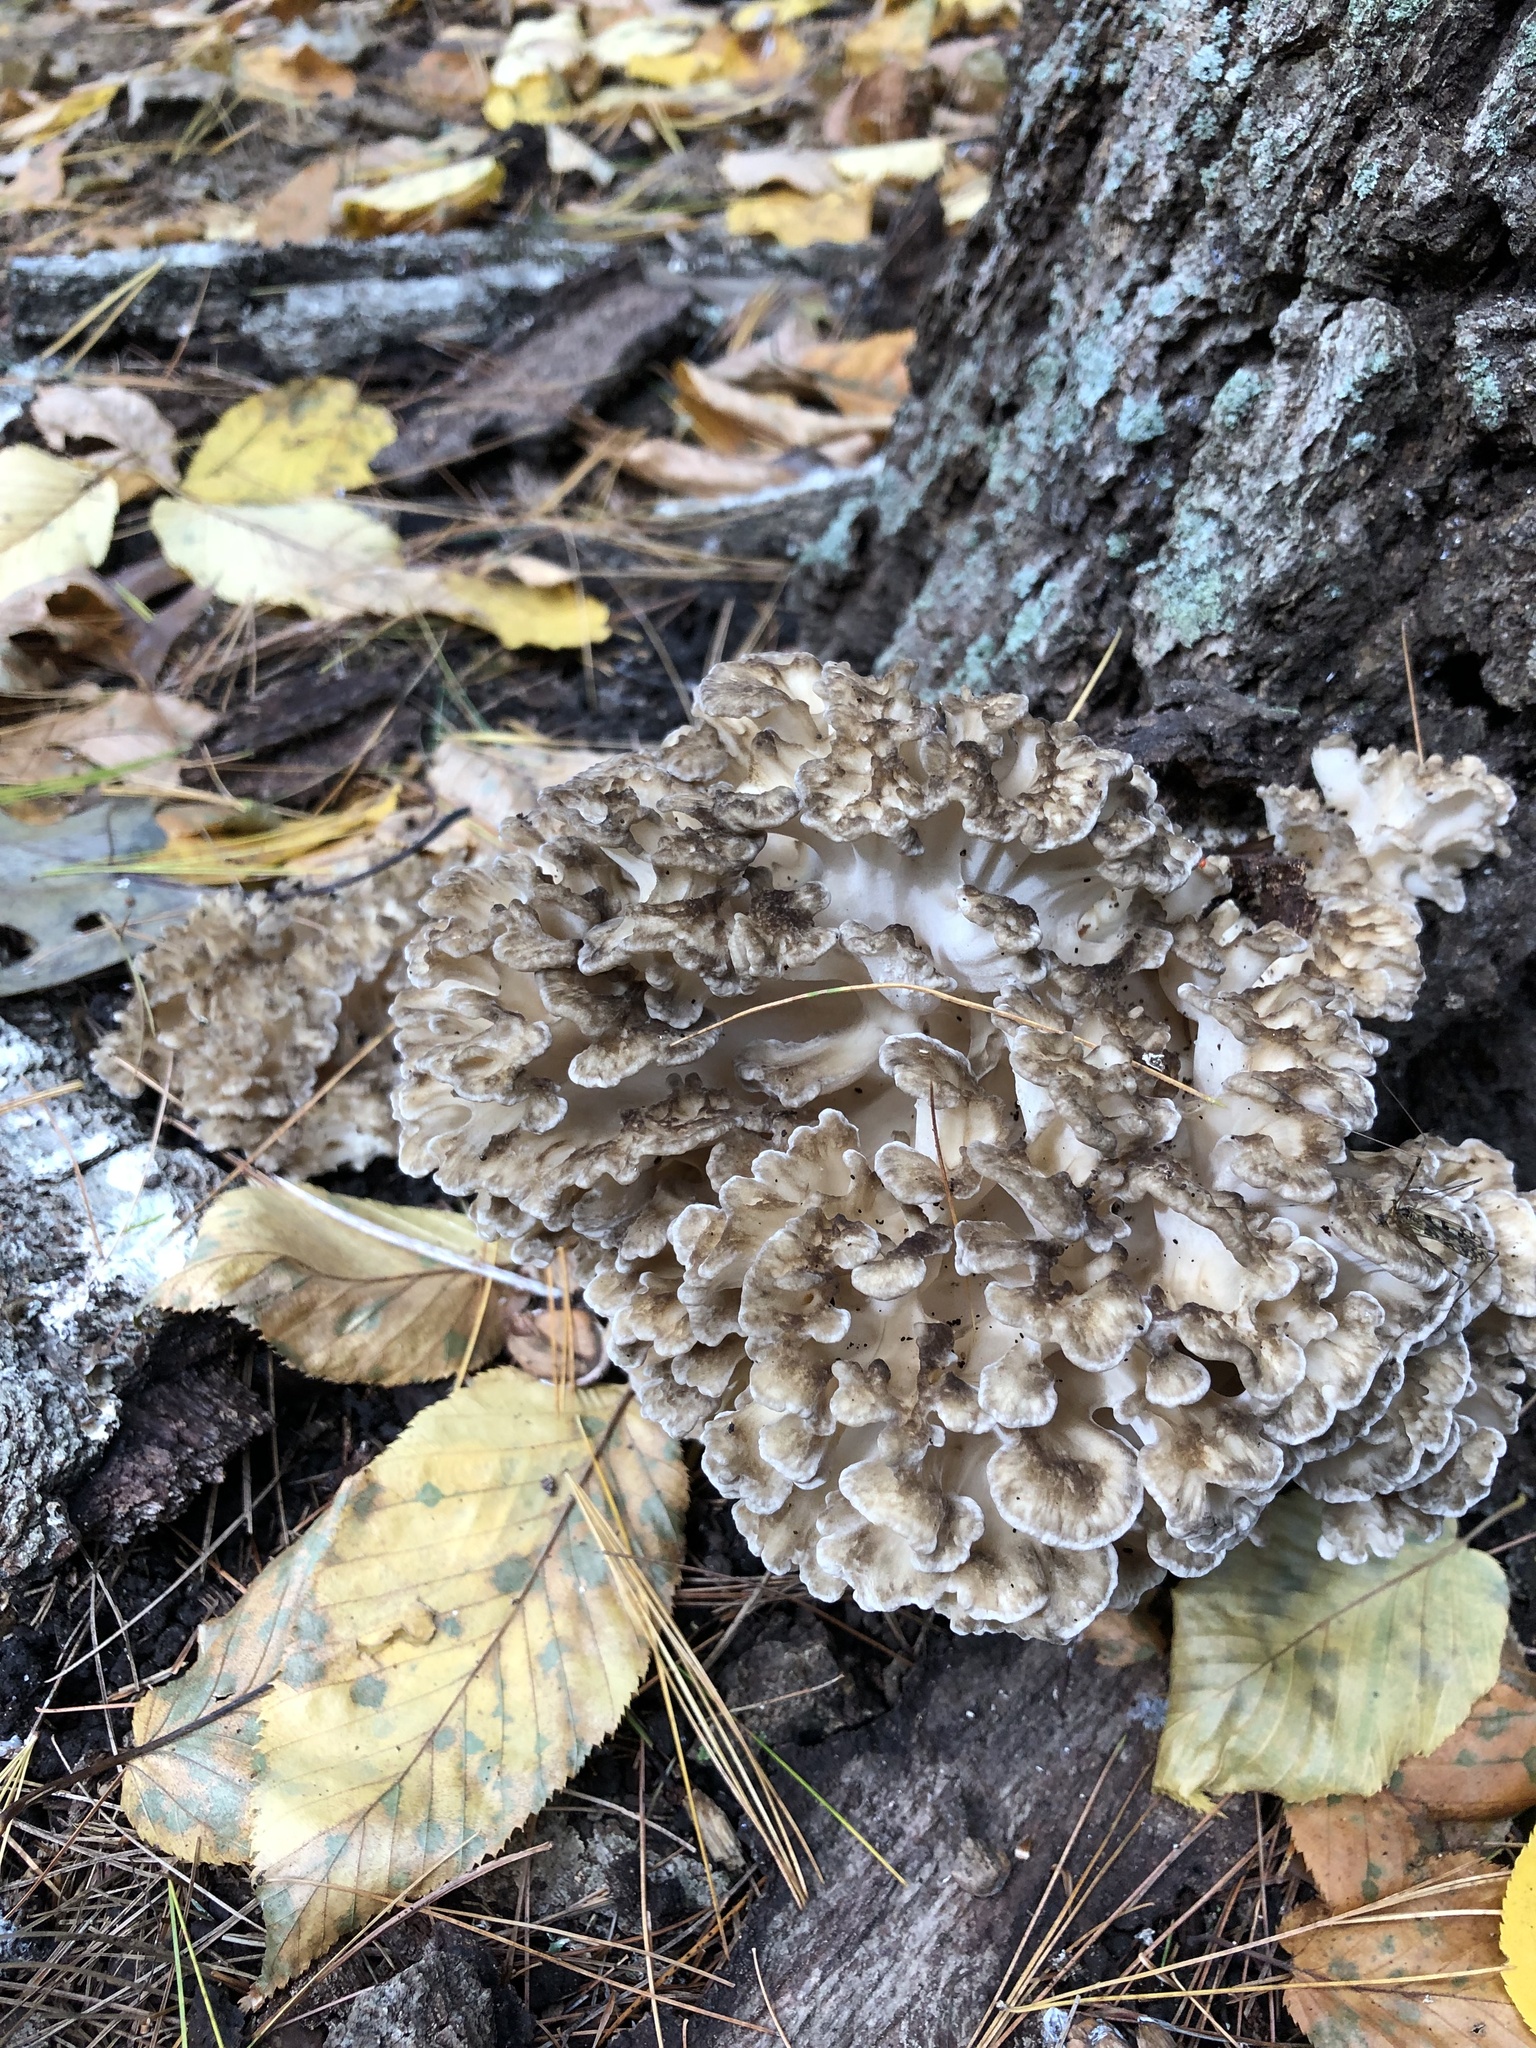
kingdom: Fungi
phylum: Basidiomycota
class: Agaricomycetes
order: Polyporales
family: Grifolaceae
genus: Grifola
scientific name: Grifola frondosa
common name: Hen of the woods
